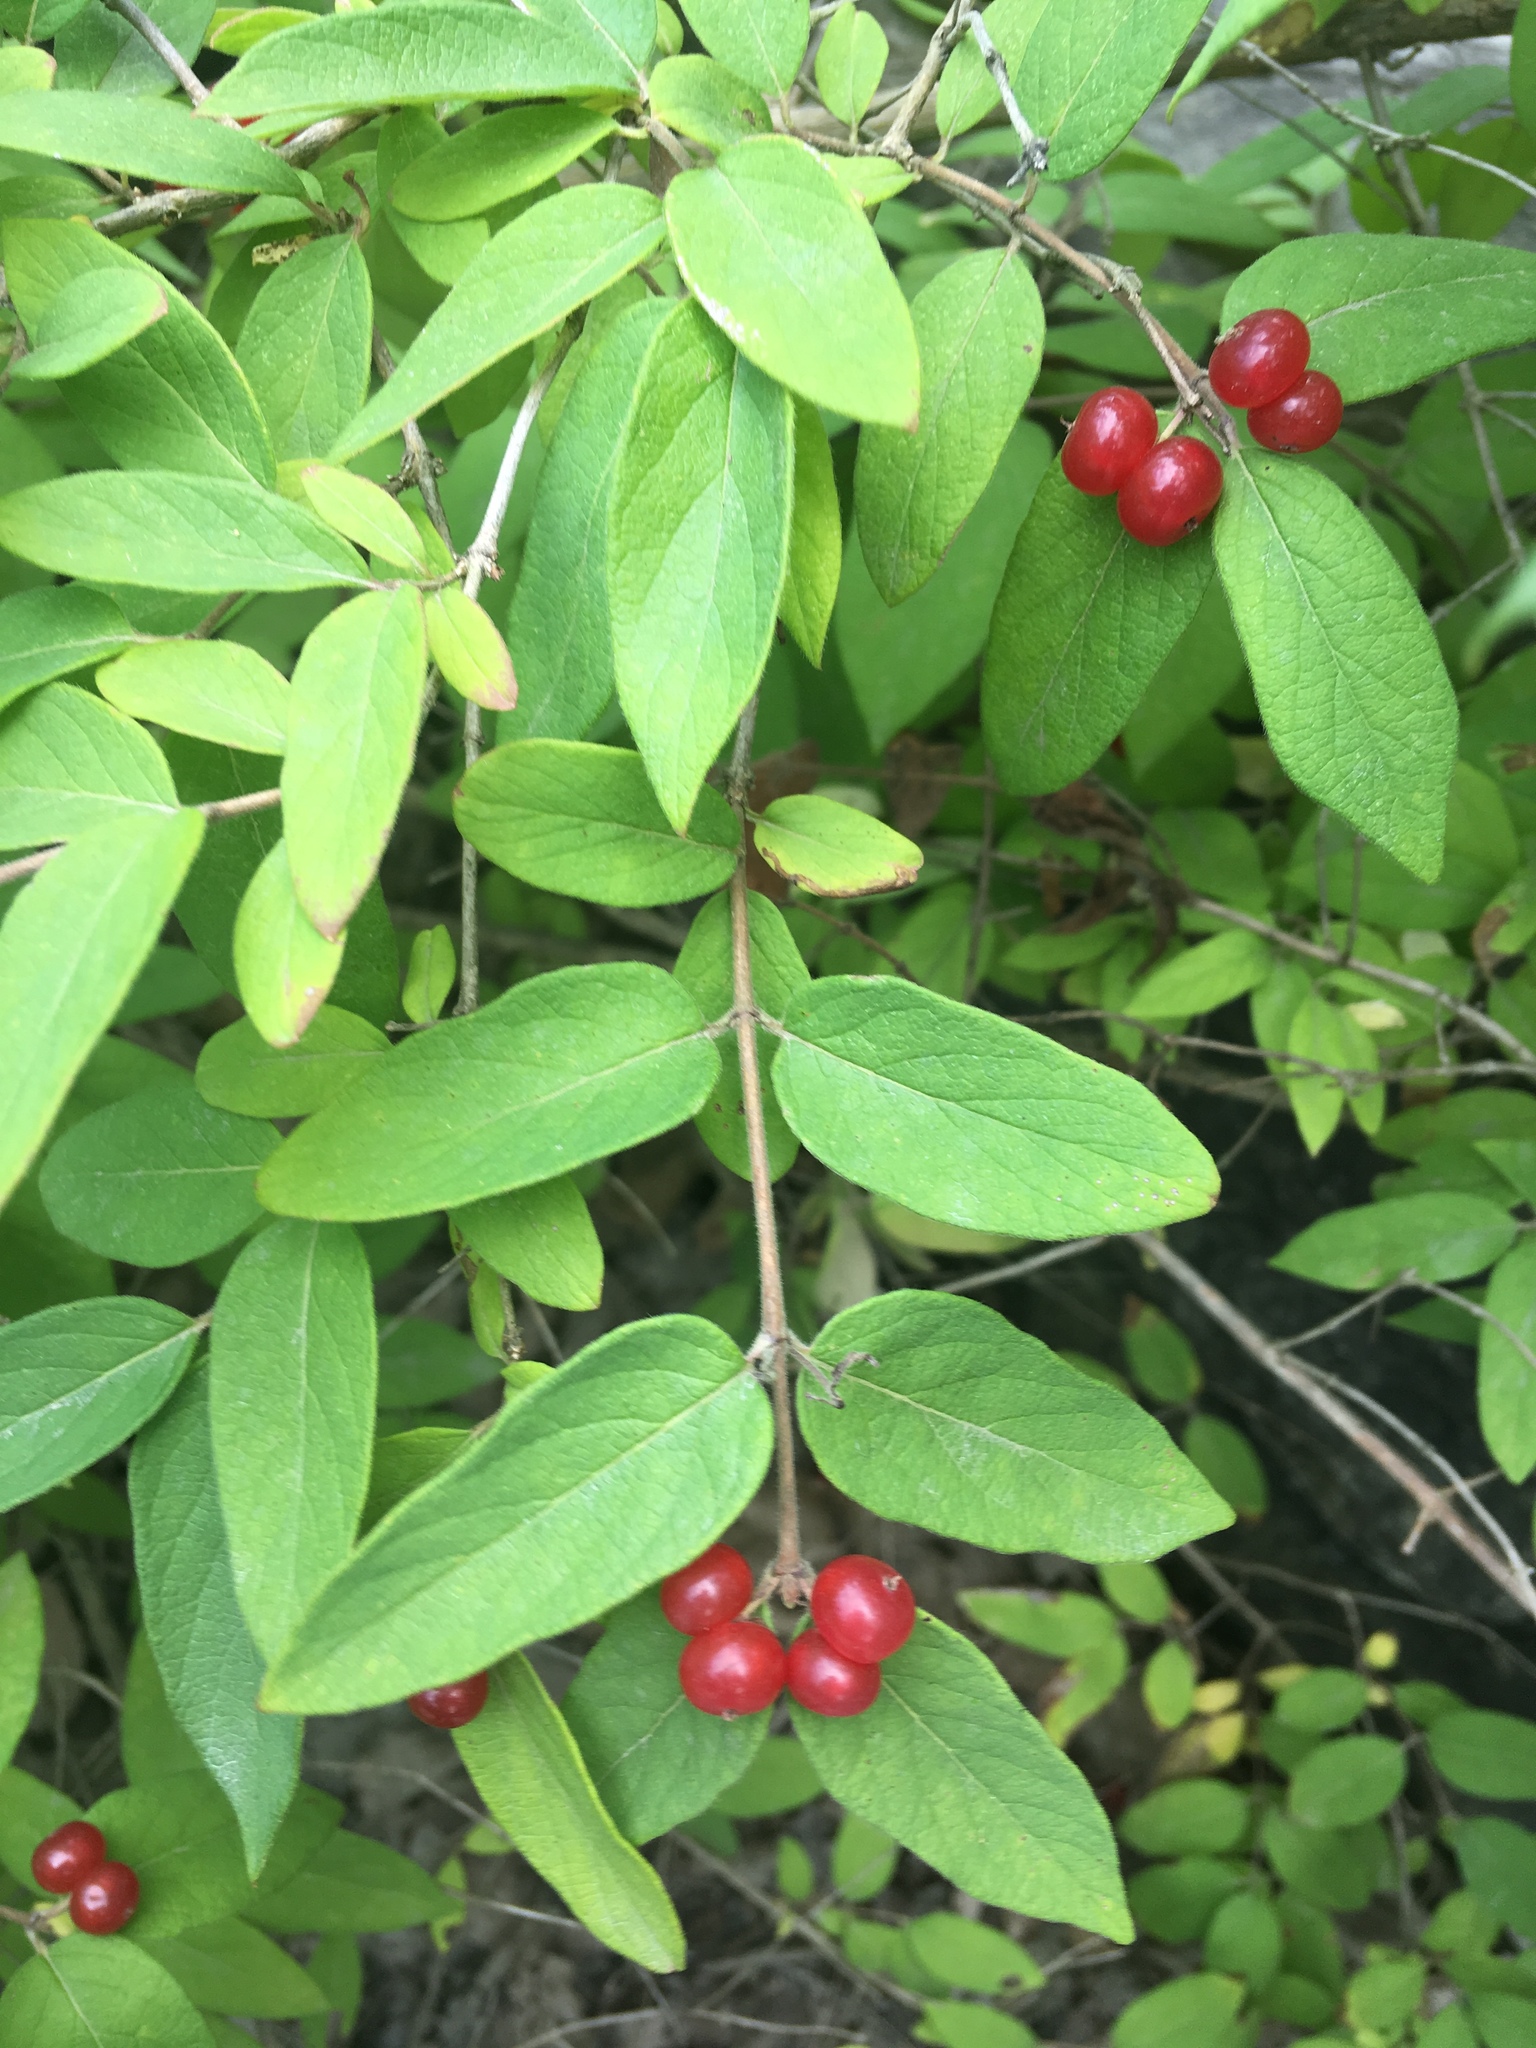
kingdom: Plantae
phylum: Tracheophyta
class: Magnoliopsida
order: Dipsacales
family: Caprifoliaceae
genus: Lonicera
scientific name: Lonicera morrowii
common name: Morrow's honeysuckle
